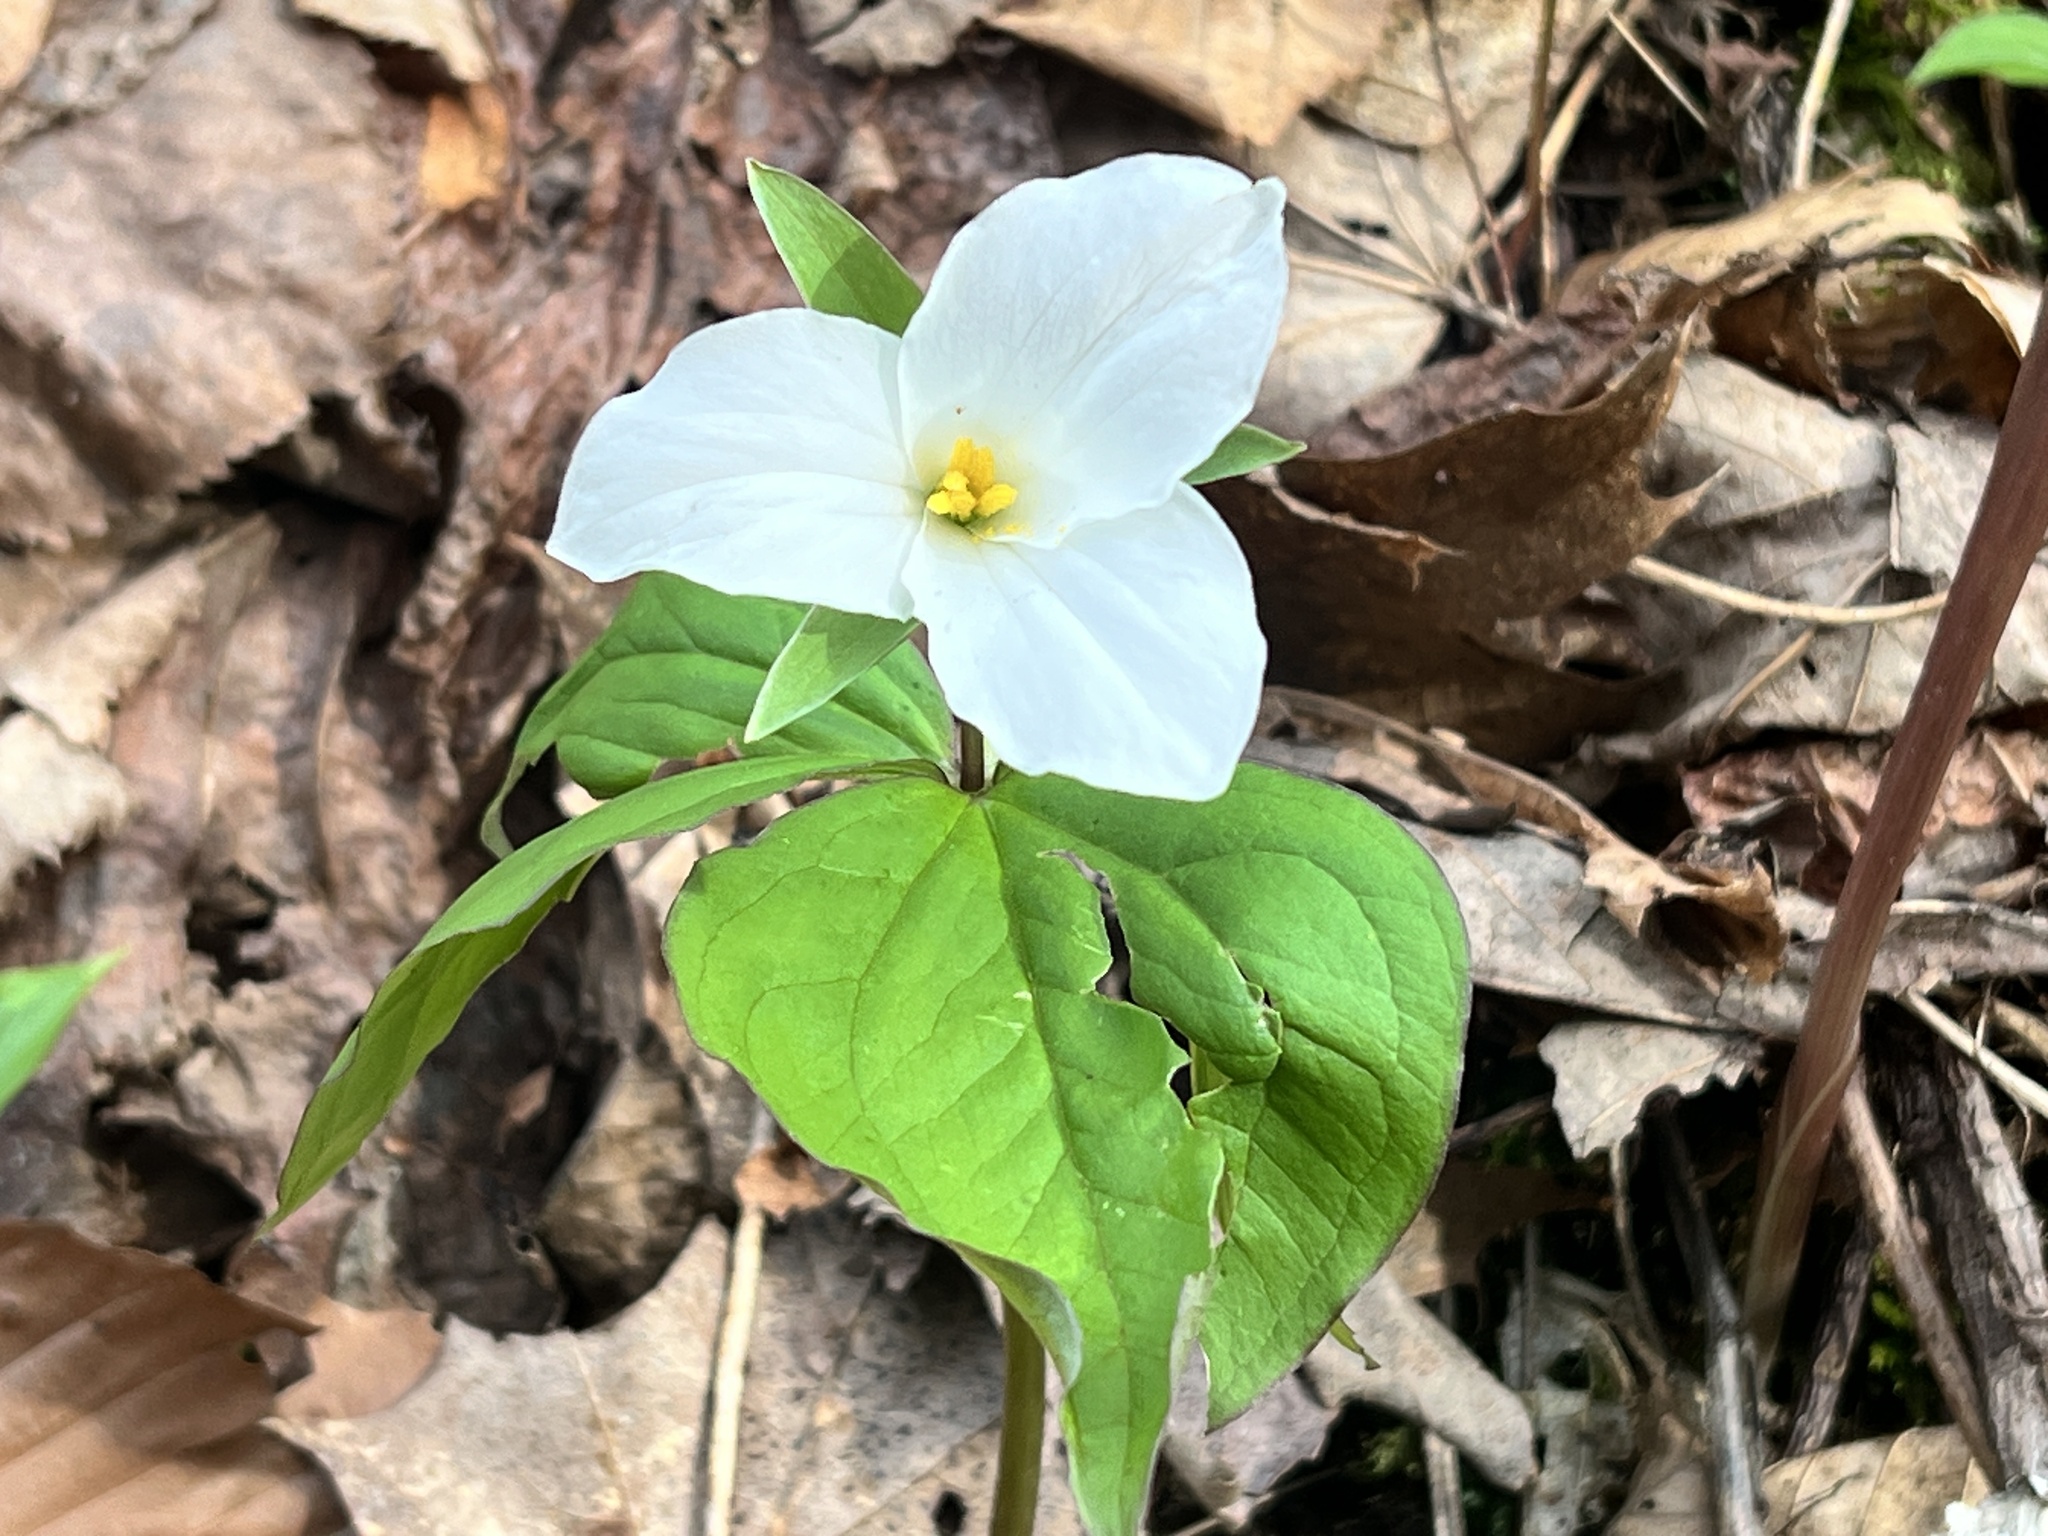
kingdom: Plantae
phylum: Tracheophyta
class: Liliopsida
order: Liliales
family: Melanthiaceae
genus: Trillium
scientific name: Trillium grandiflorum
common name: Great white trillium
